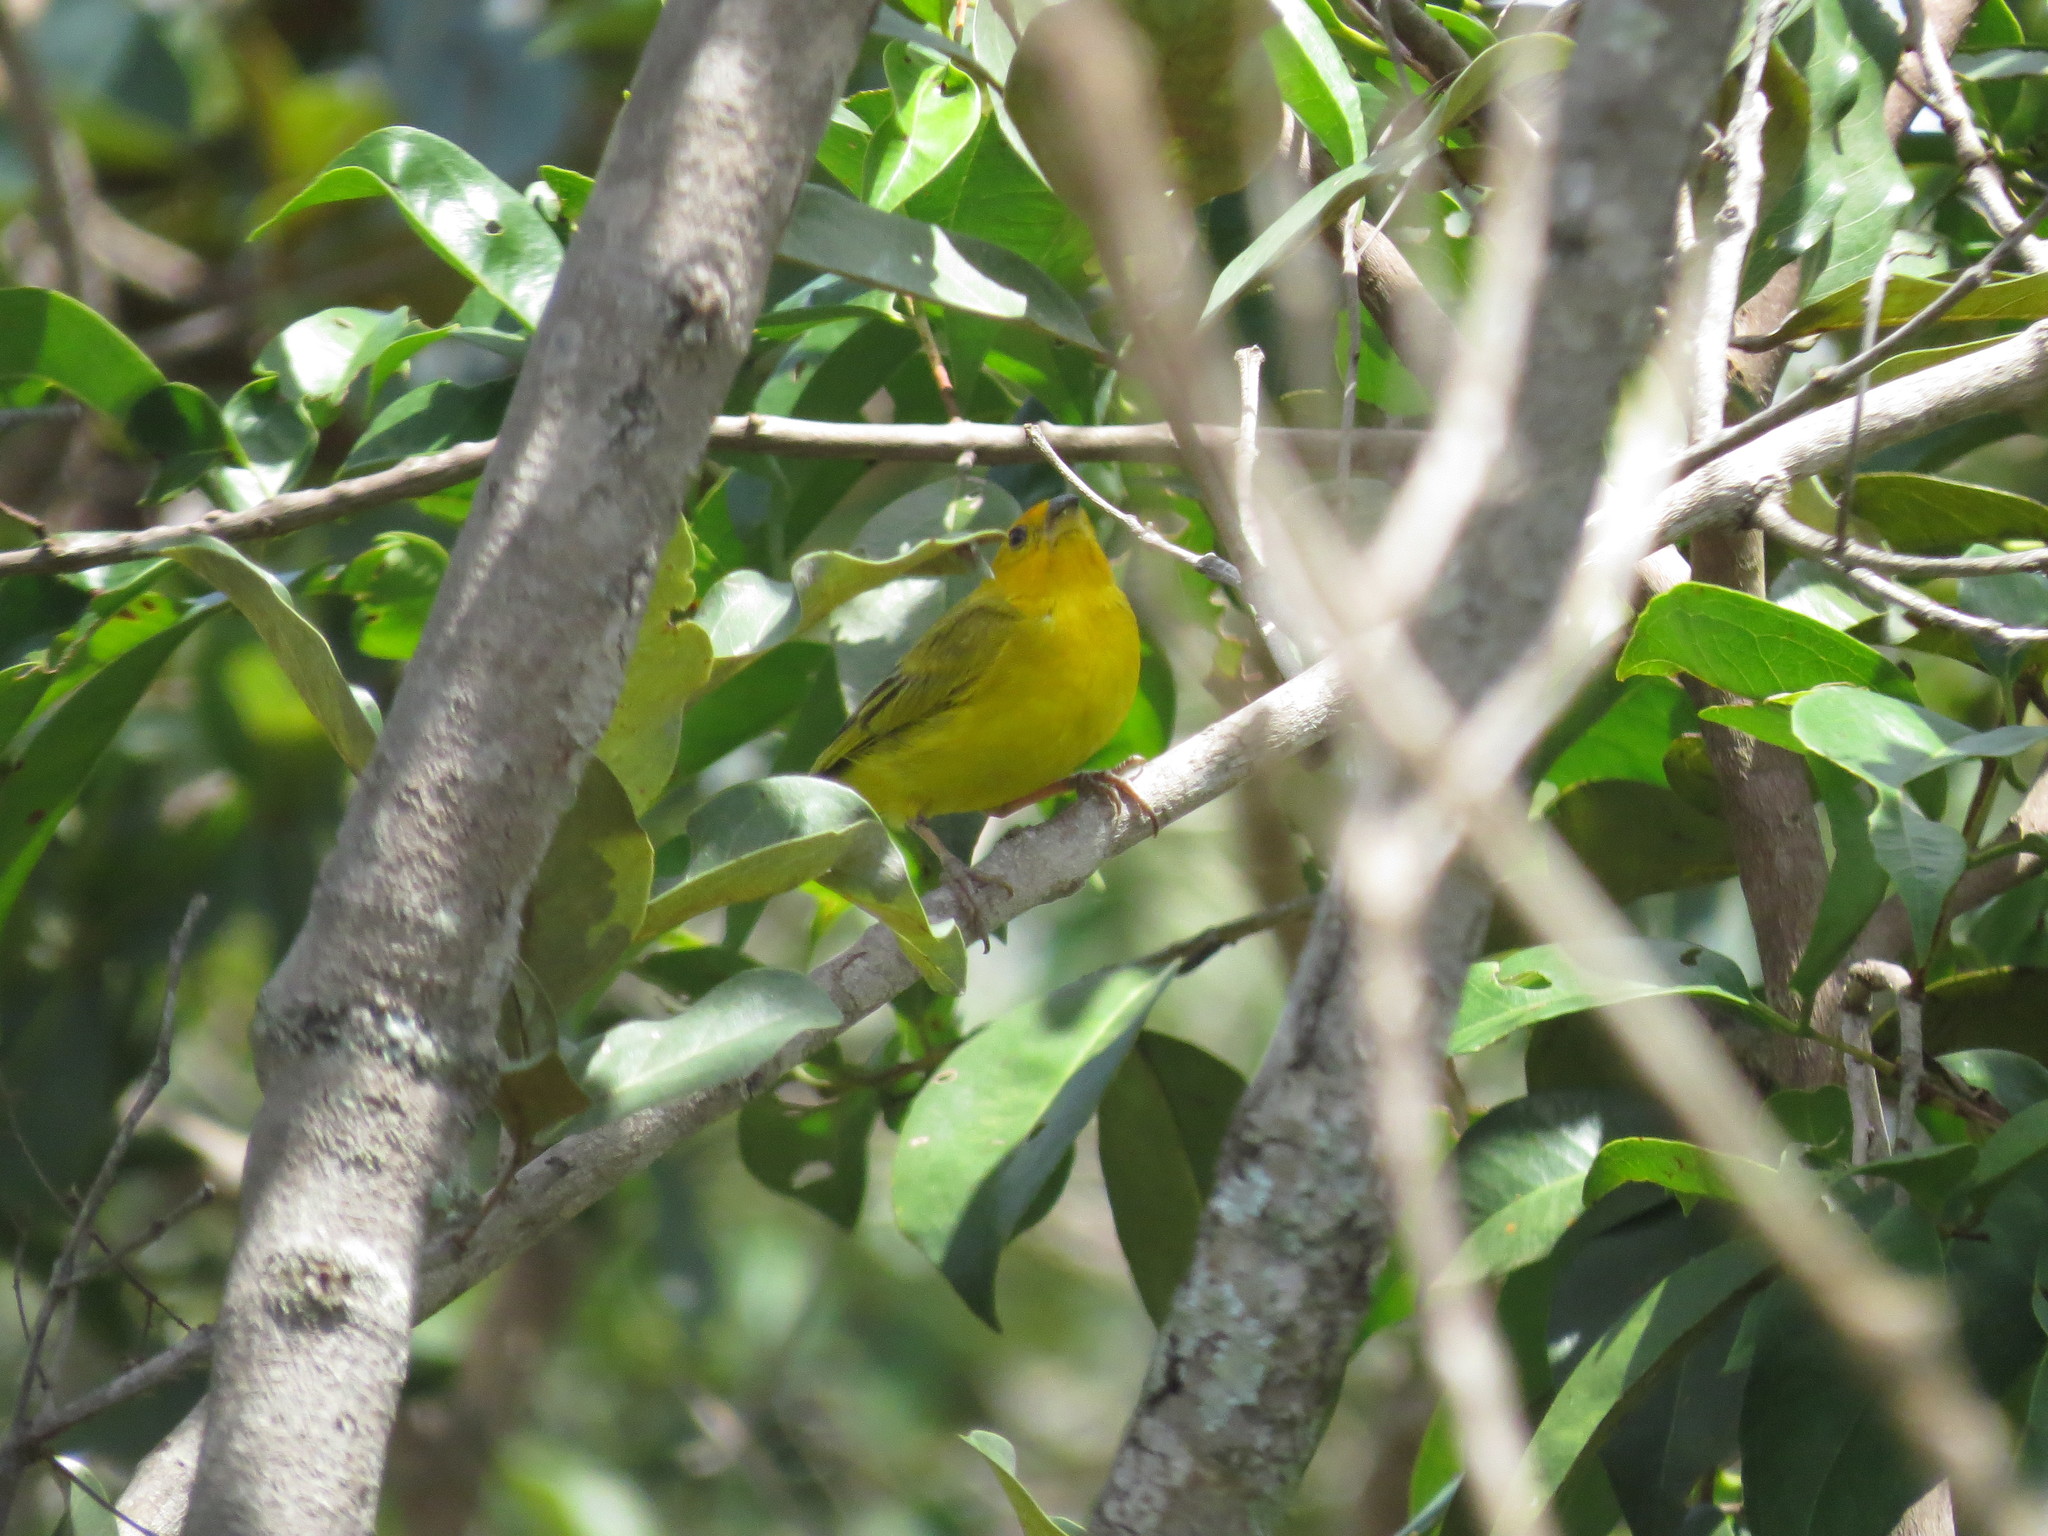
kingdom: Animalia
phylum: Chordata
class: Aves
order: Passeriformes
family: Thraupidae
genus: Sicalis
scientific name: Sicalis flaveola
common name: Saffron finch
